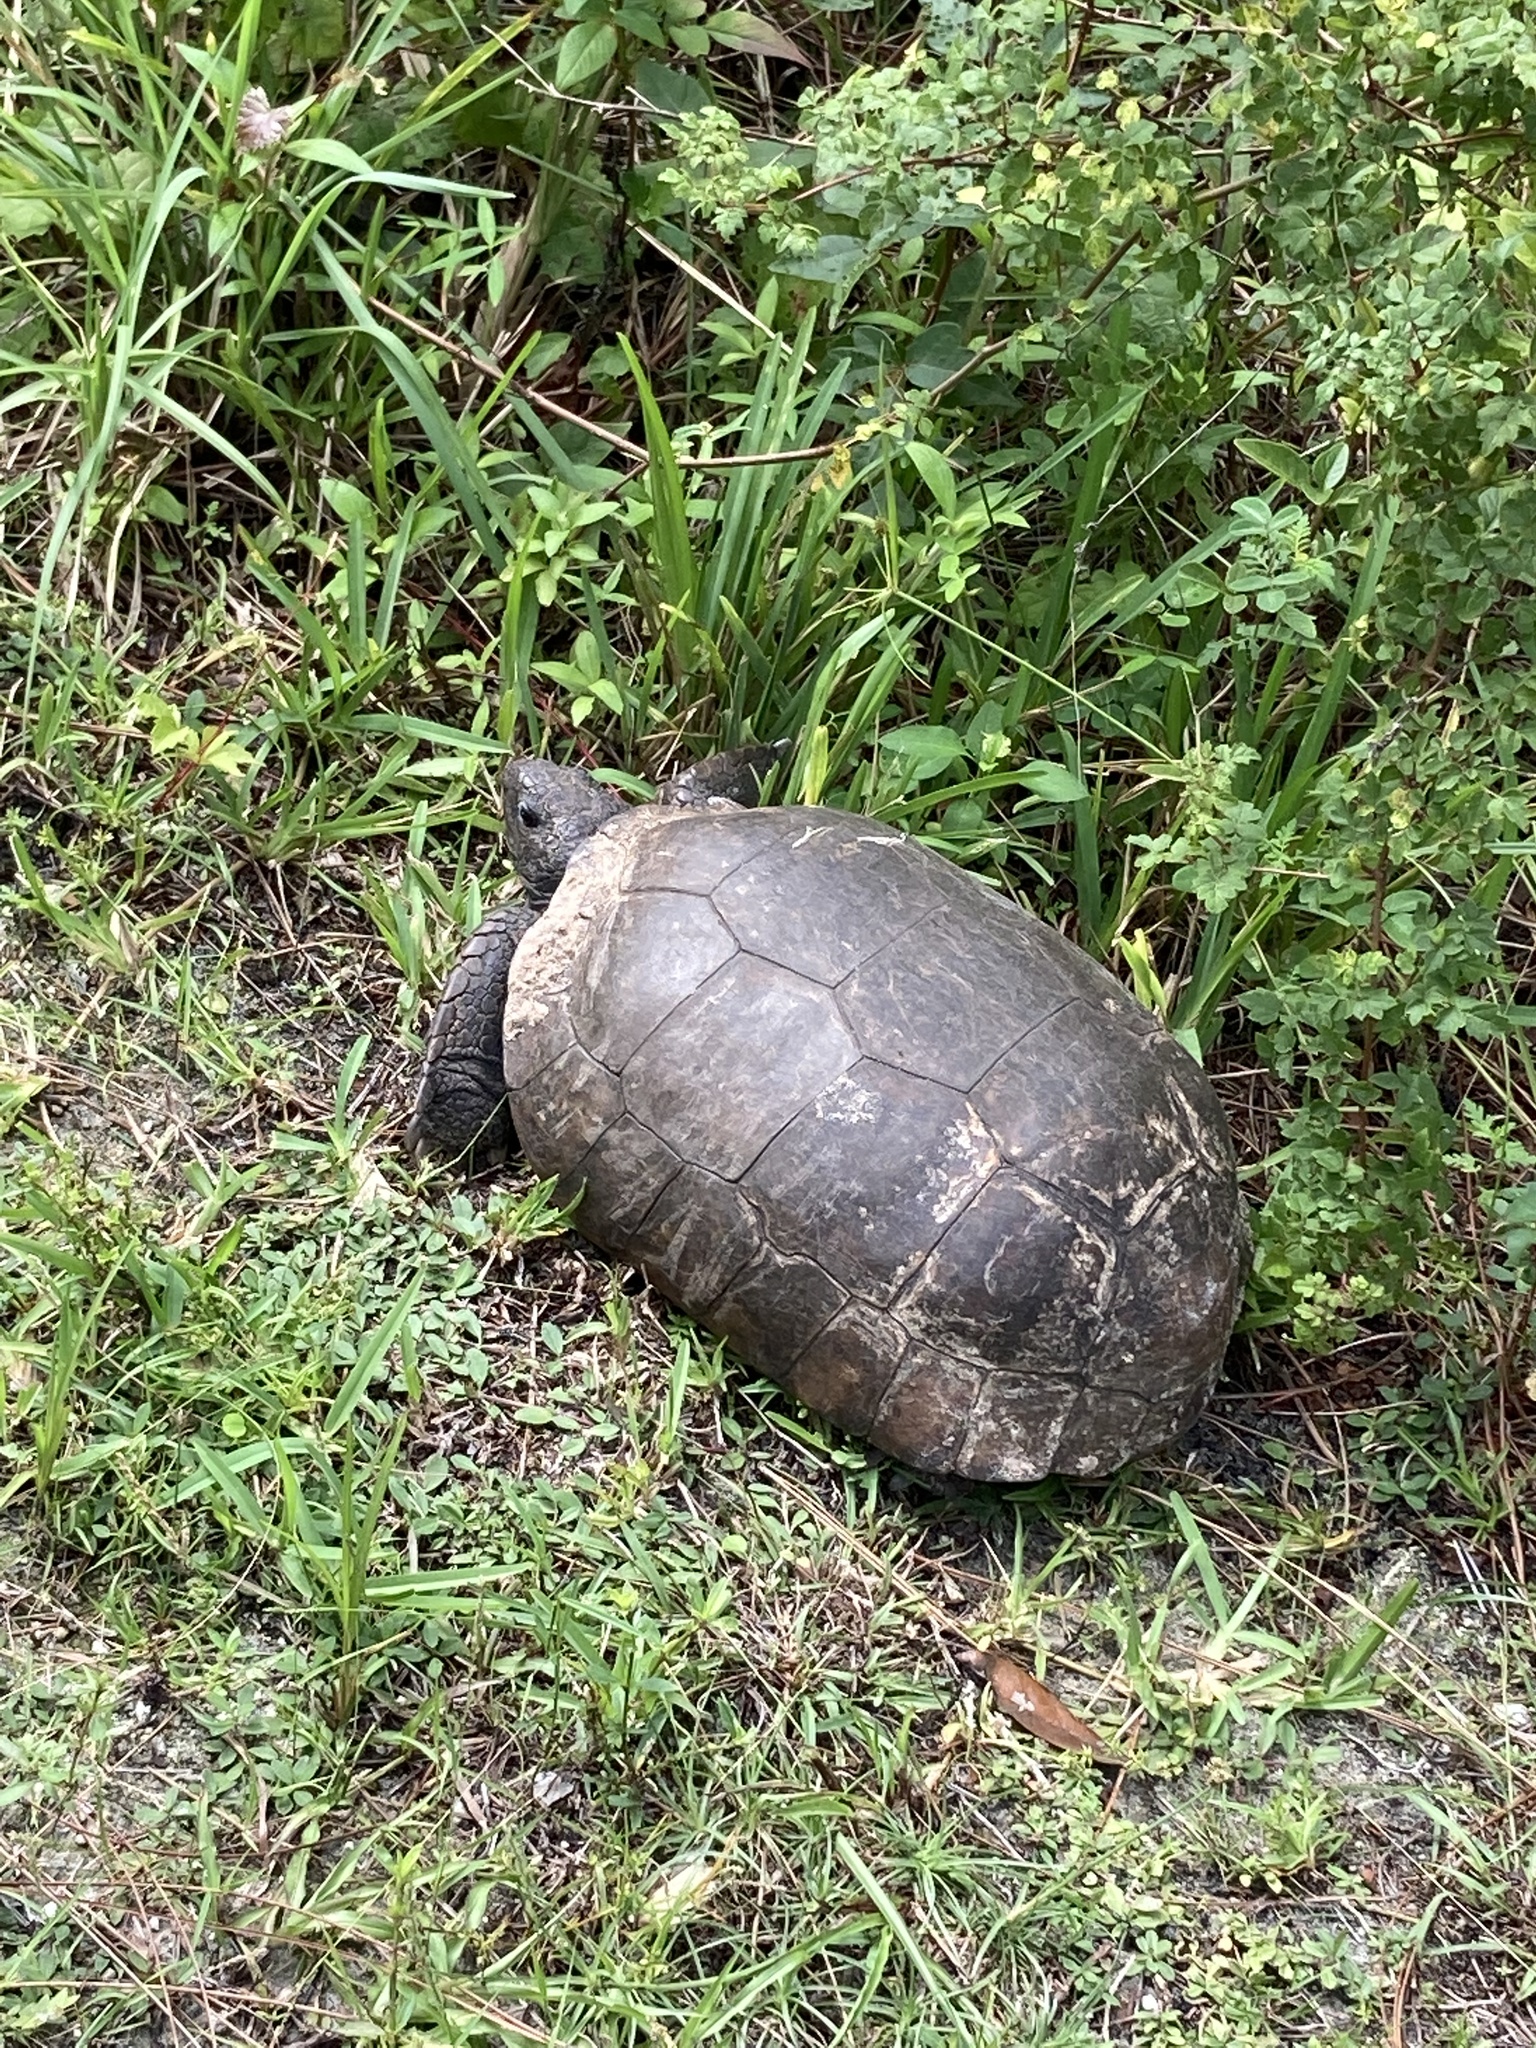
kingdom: Animalia
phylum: Chordata
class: Testudines
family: Testudinidae
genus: Gopherus
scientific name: Gopherus polyphemus
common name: Florida gopher tortoise
